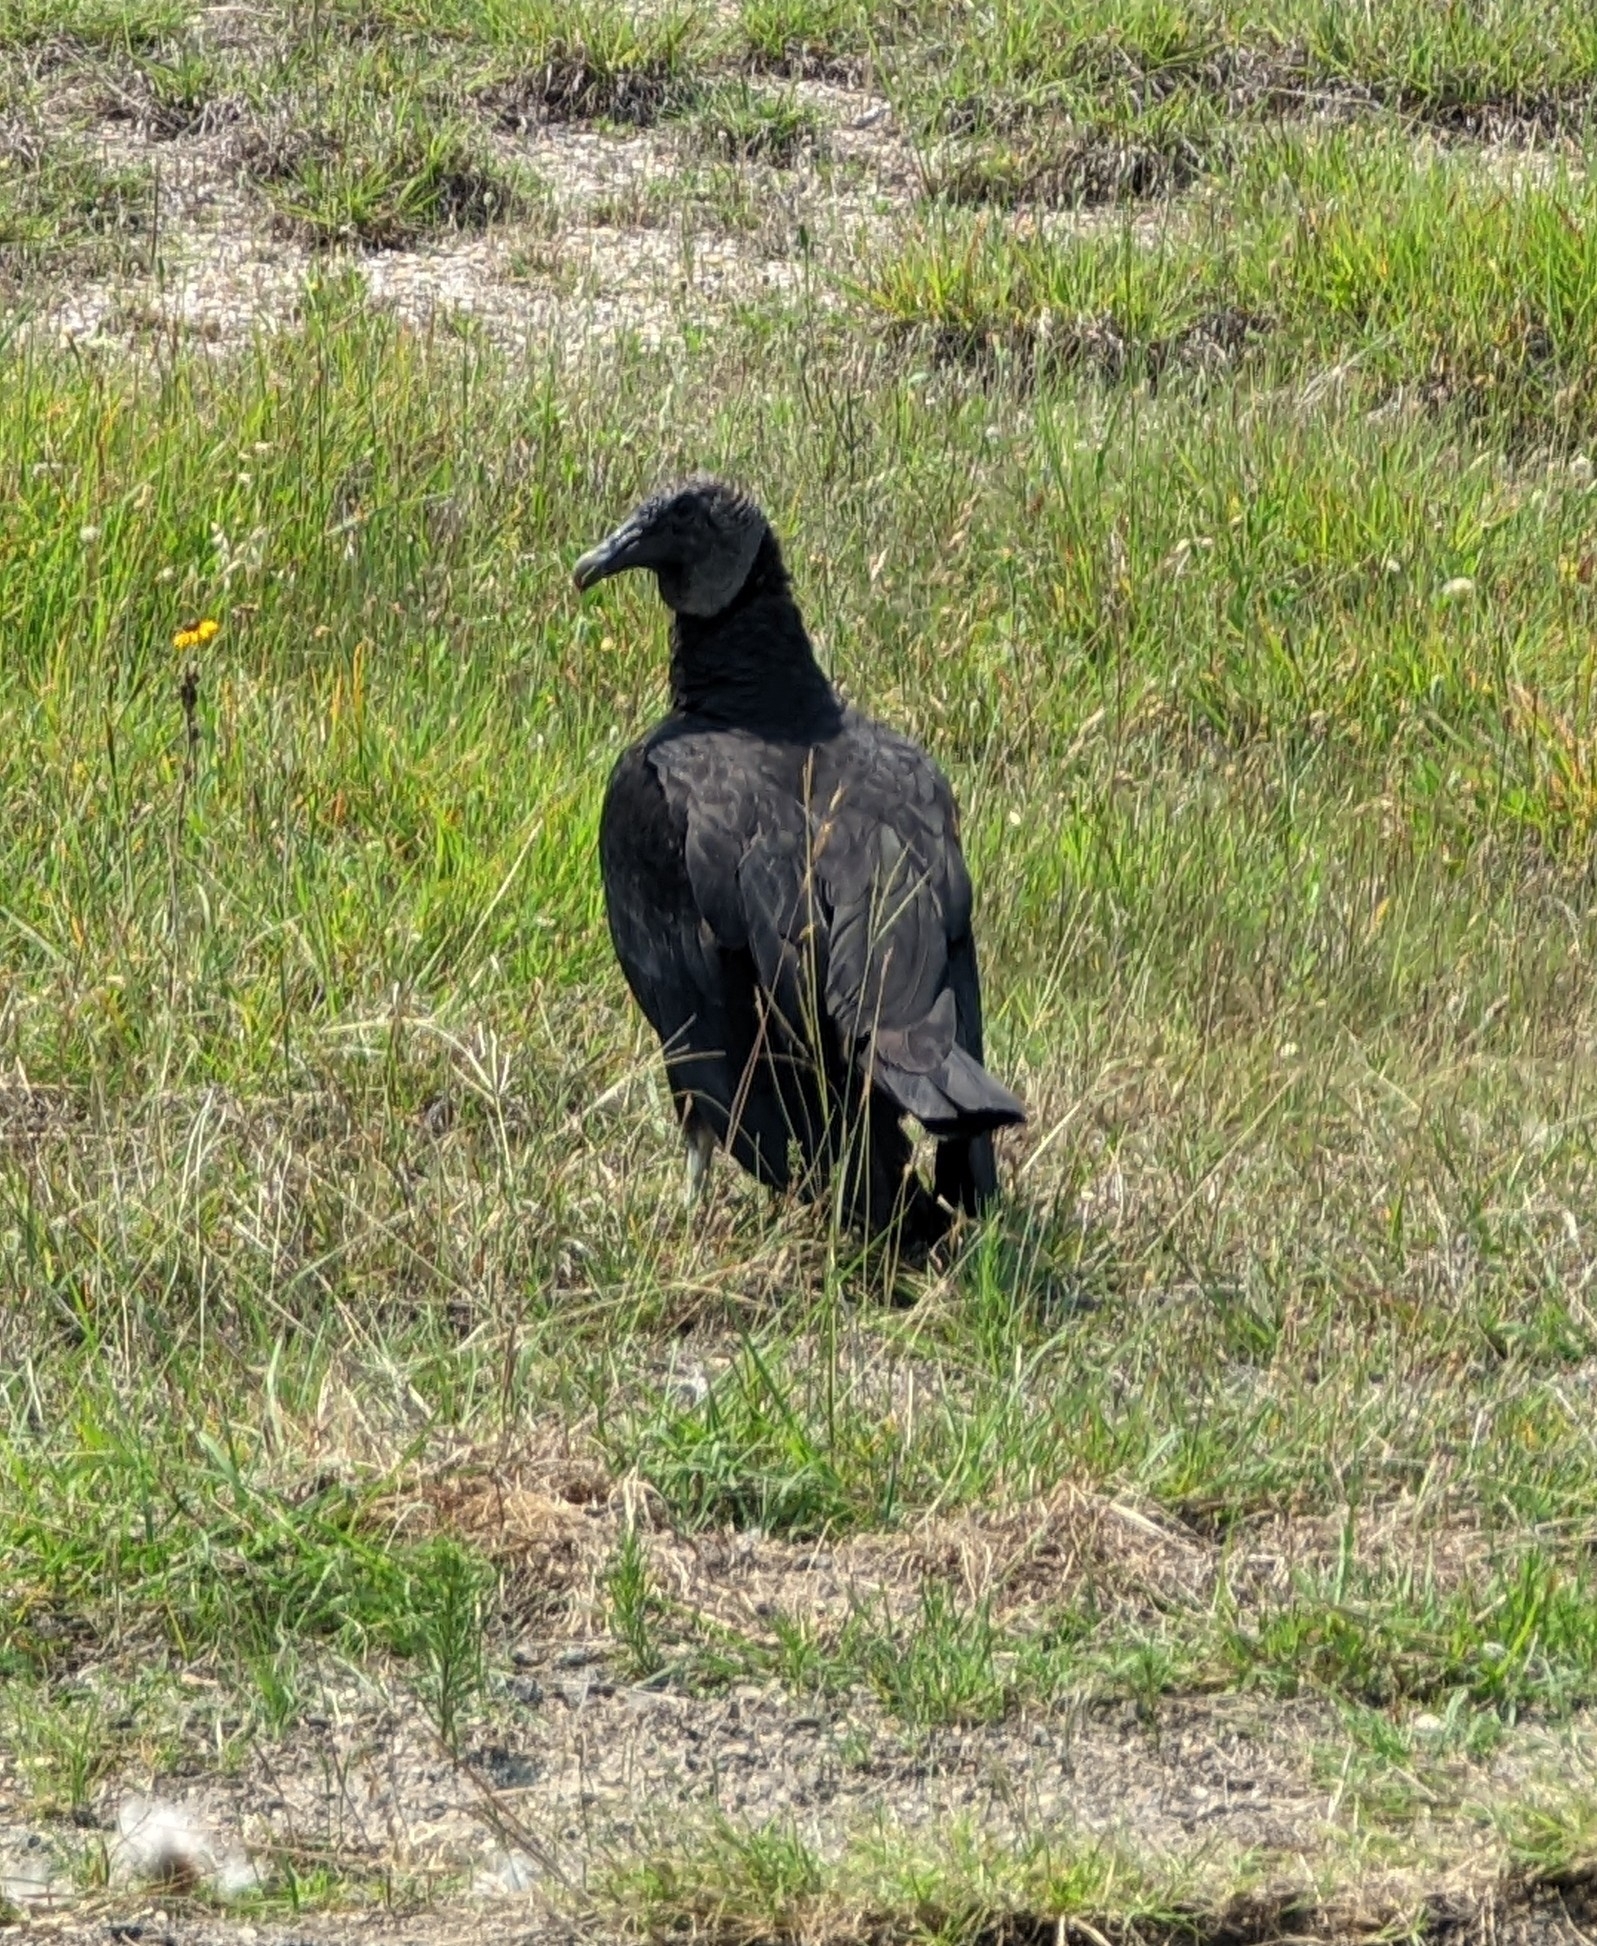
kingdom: Animalia
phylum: Chordata
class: Aves
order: Accipitriformes
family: Cathartidae
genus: Coragyps
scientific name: Coragyps atratus
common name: Black vulture
